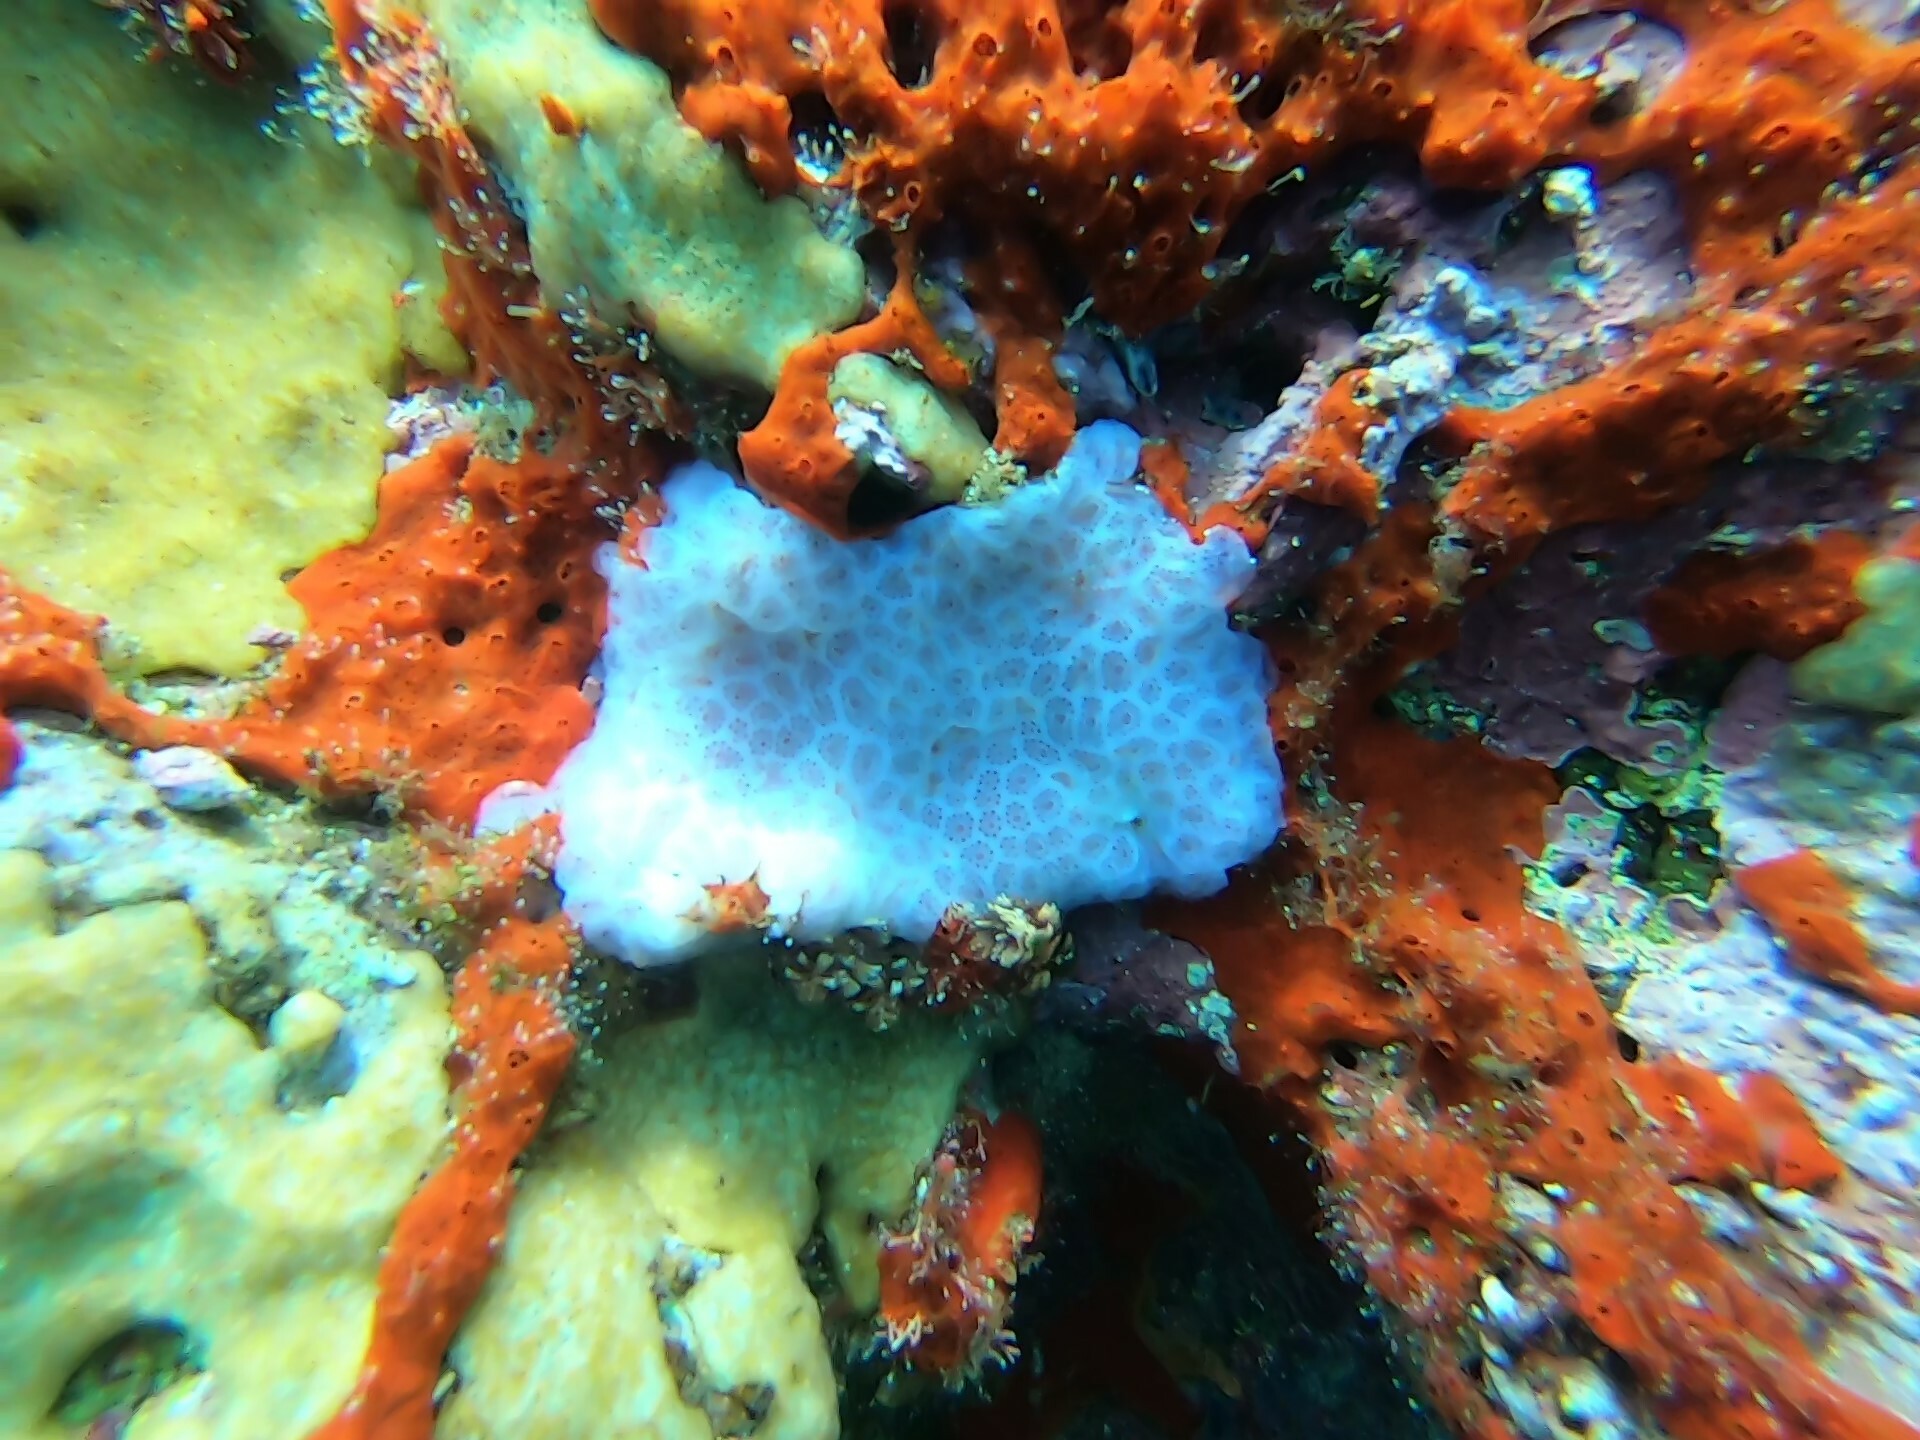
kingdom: Animalia
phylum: Chordata
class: Ascidiacea
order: Aplousobranchia
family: Polyclinidae
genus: Aplidium
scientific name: Aplidium solidum
